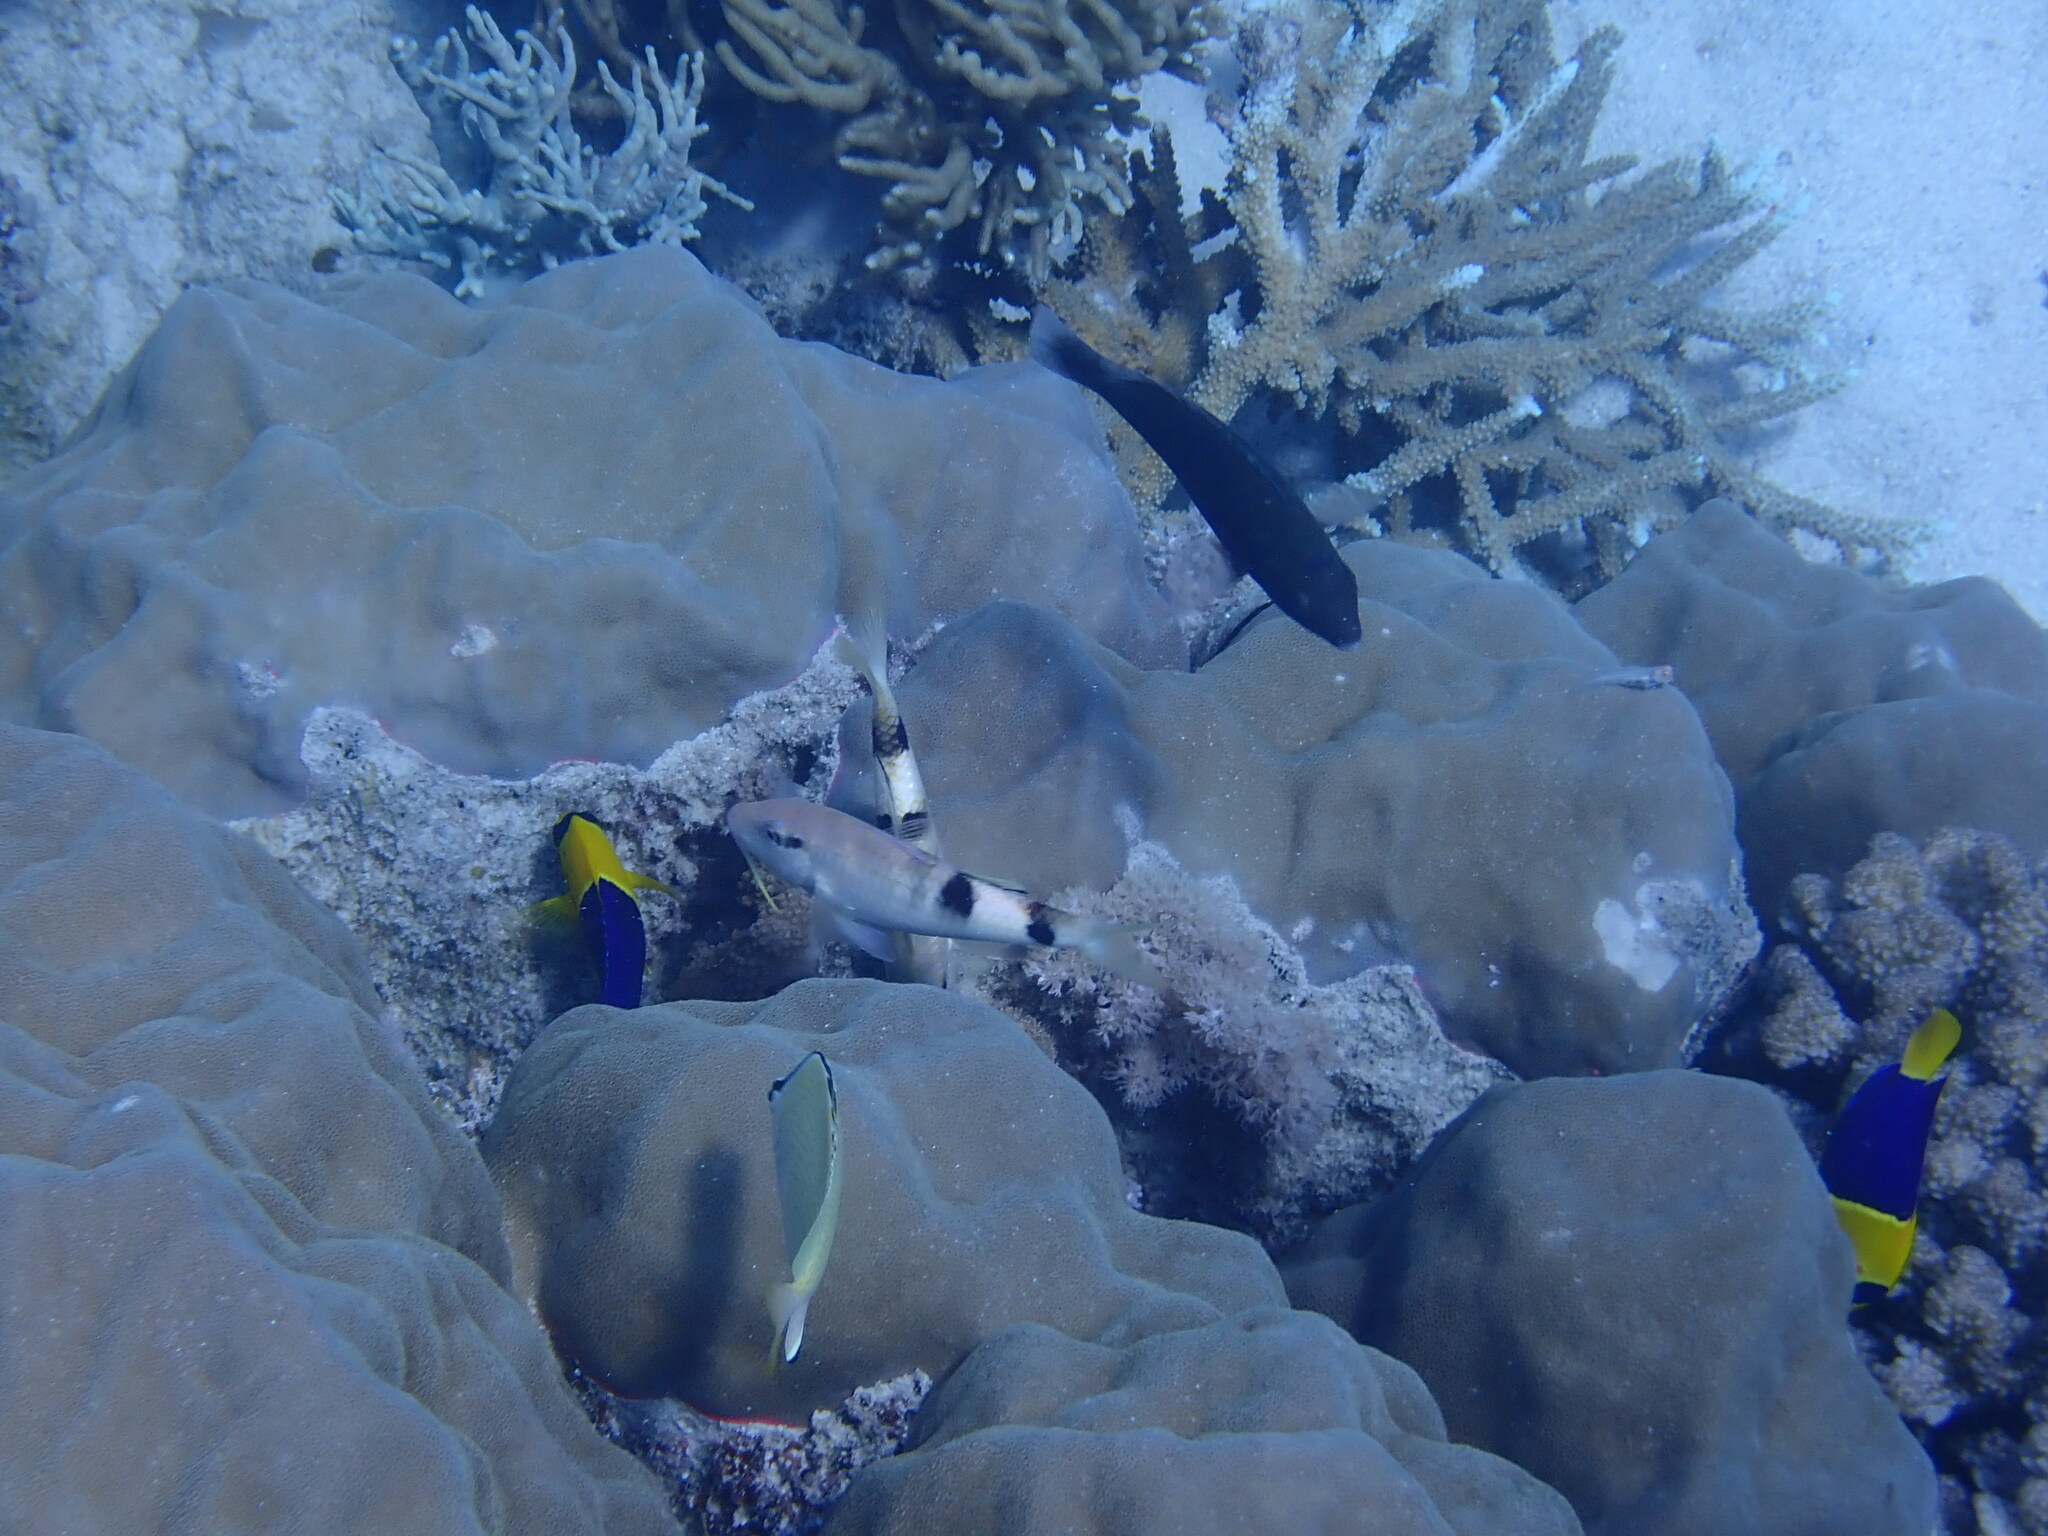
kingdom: Animalia
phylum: Chordata
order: Perciformes
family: Pomacanthidae
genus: Centropyge
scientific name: Centropyge bicolor
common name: Bicolor angelfish
